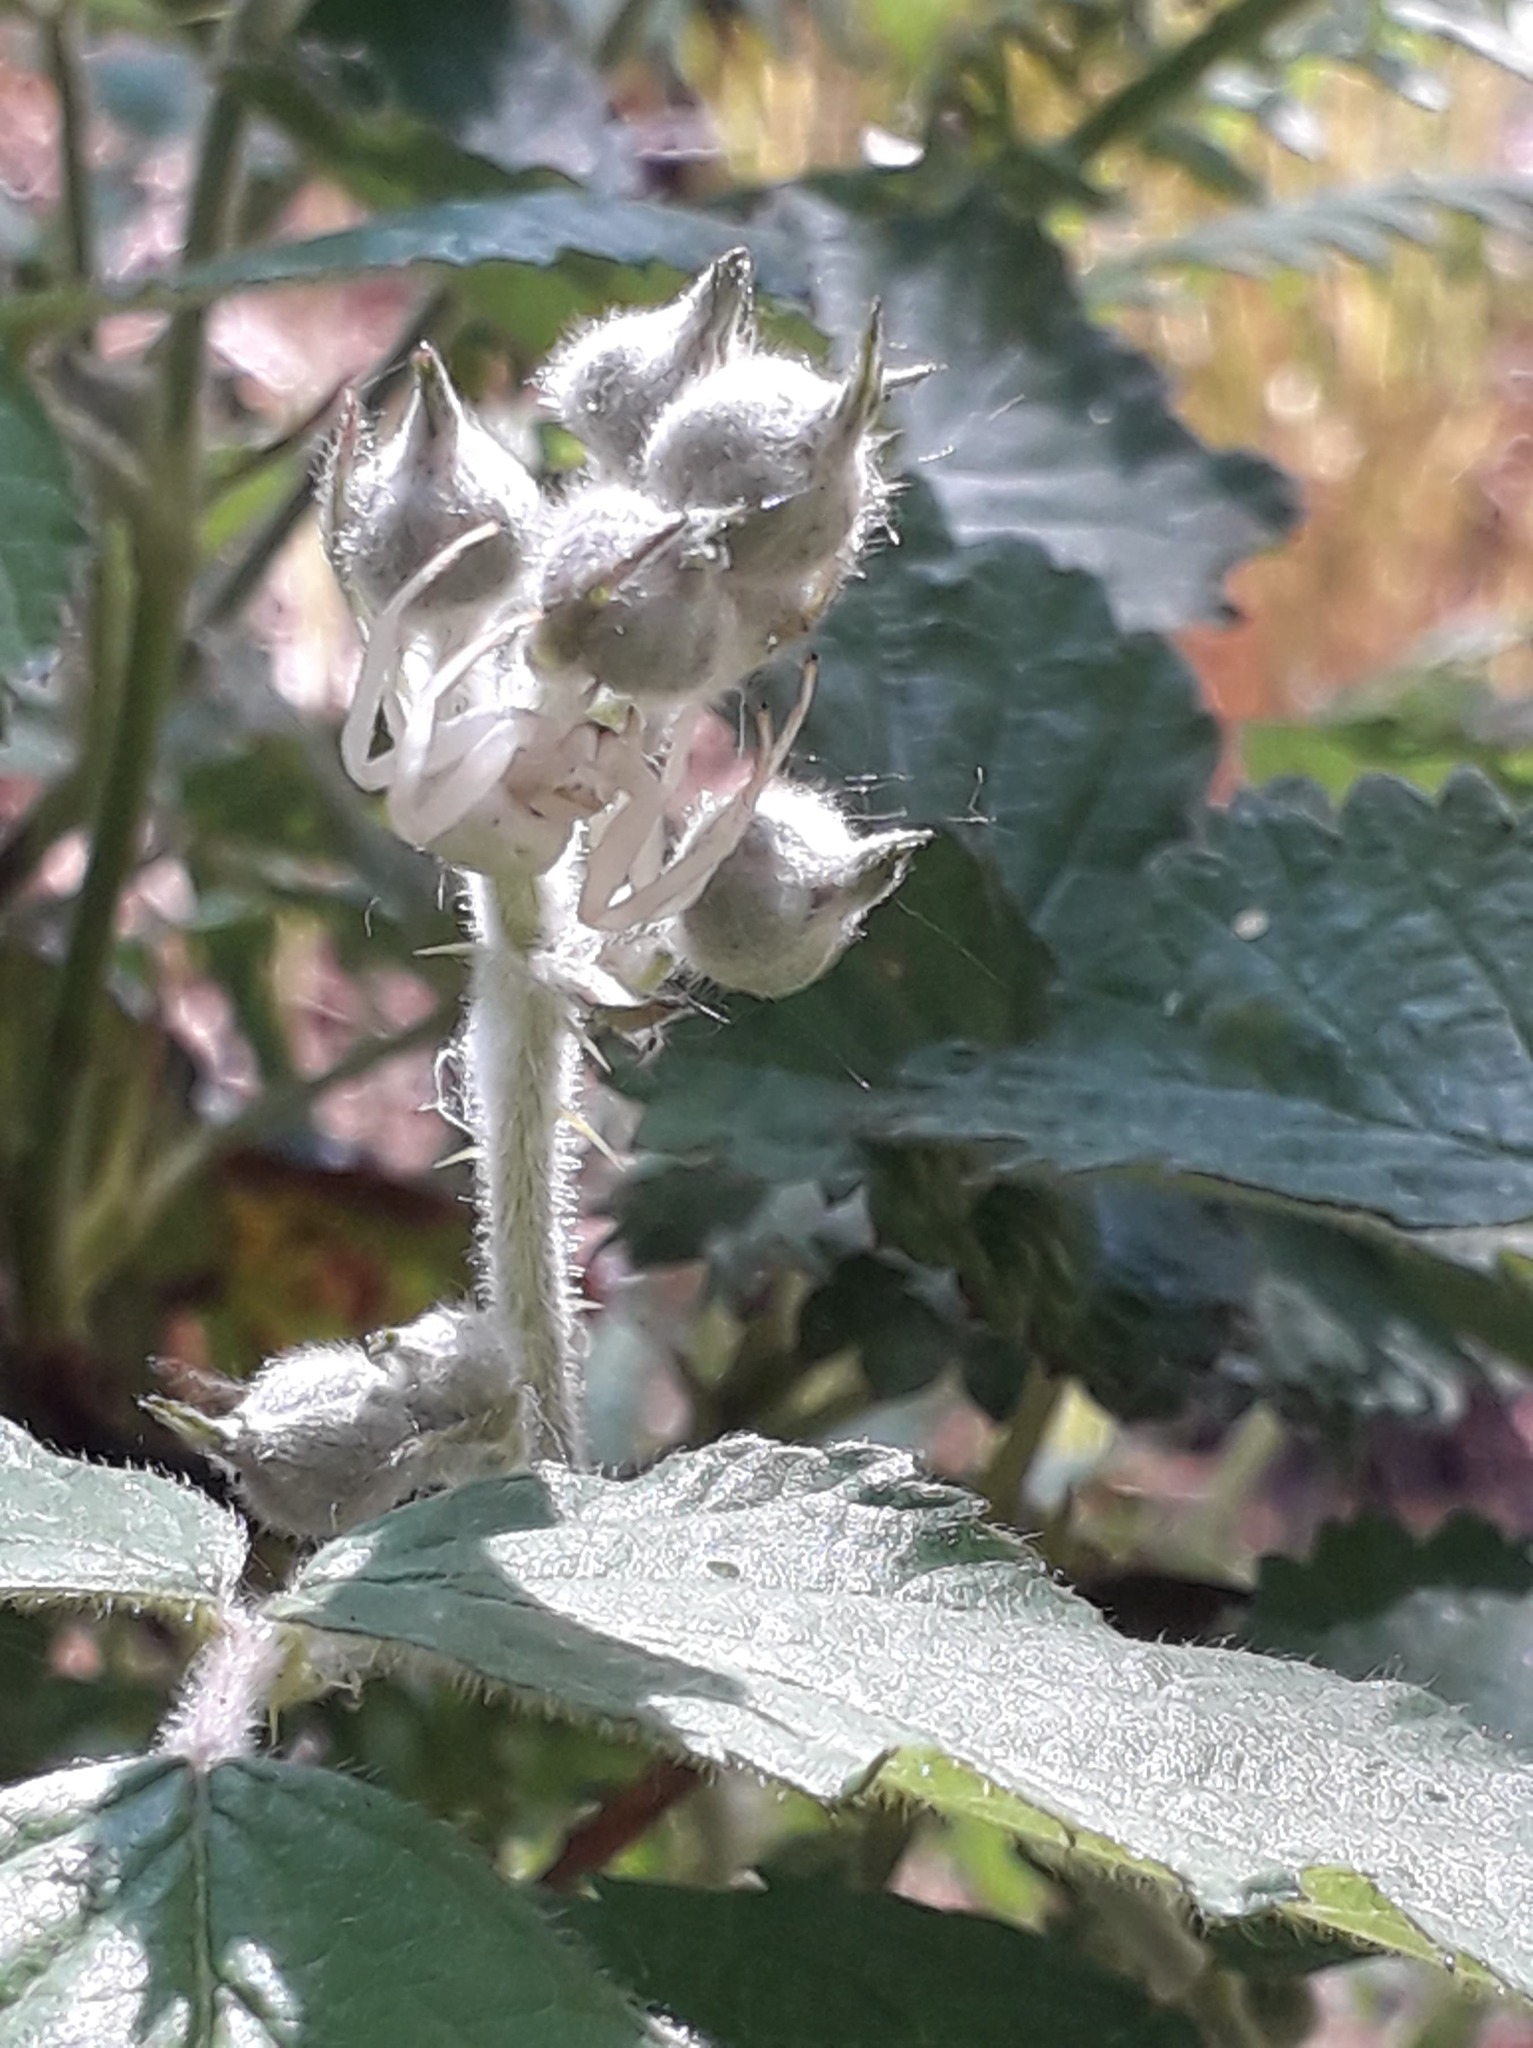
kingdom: Animalia
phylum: Arthropoda
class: Arachnida
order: Araneae
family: Thomisidae
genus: Misumena
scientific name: Misumena vatia
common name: Goldenrod crab spider
